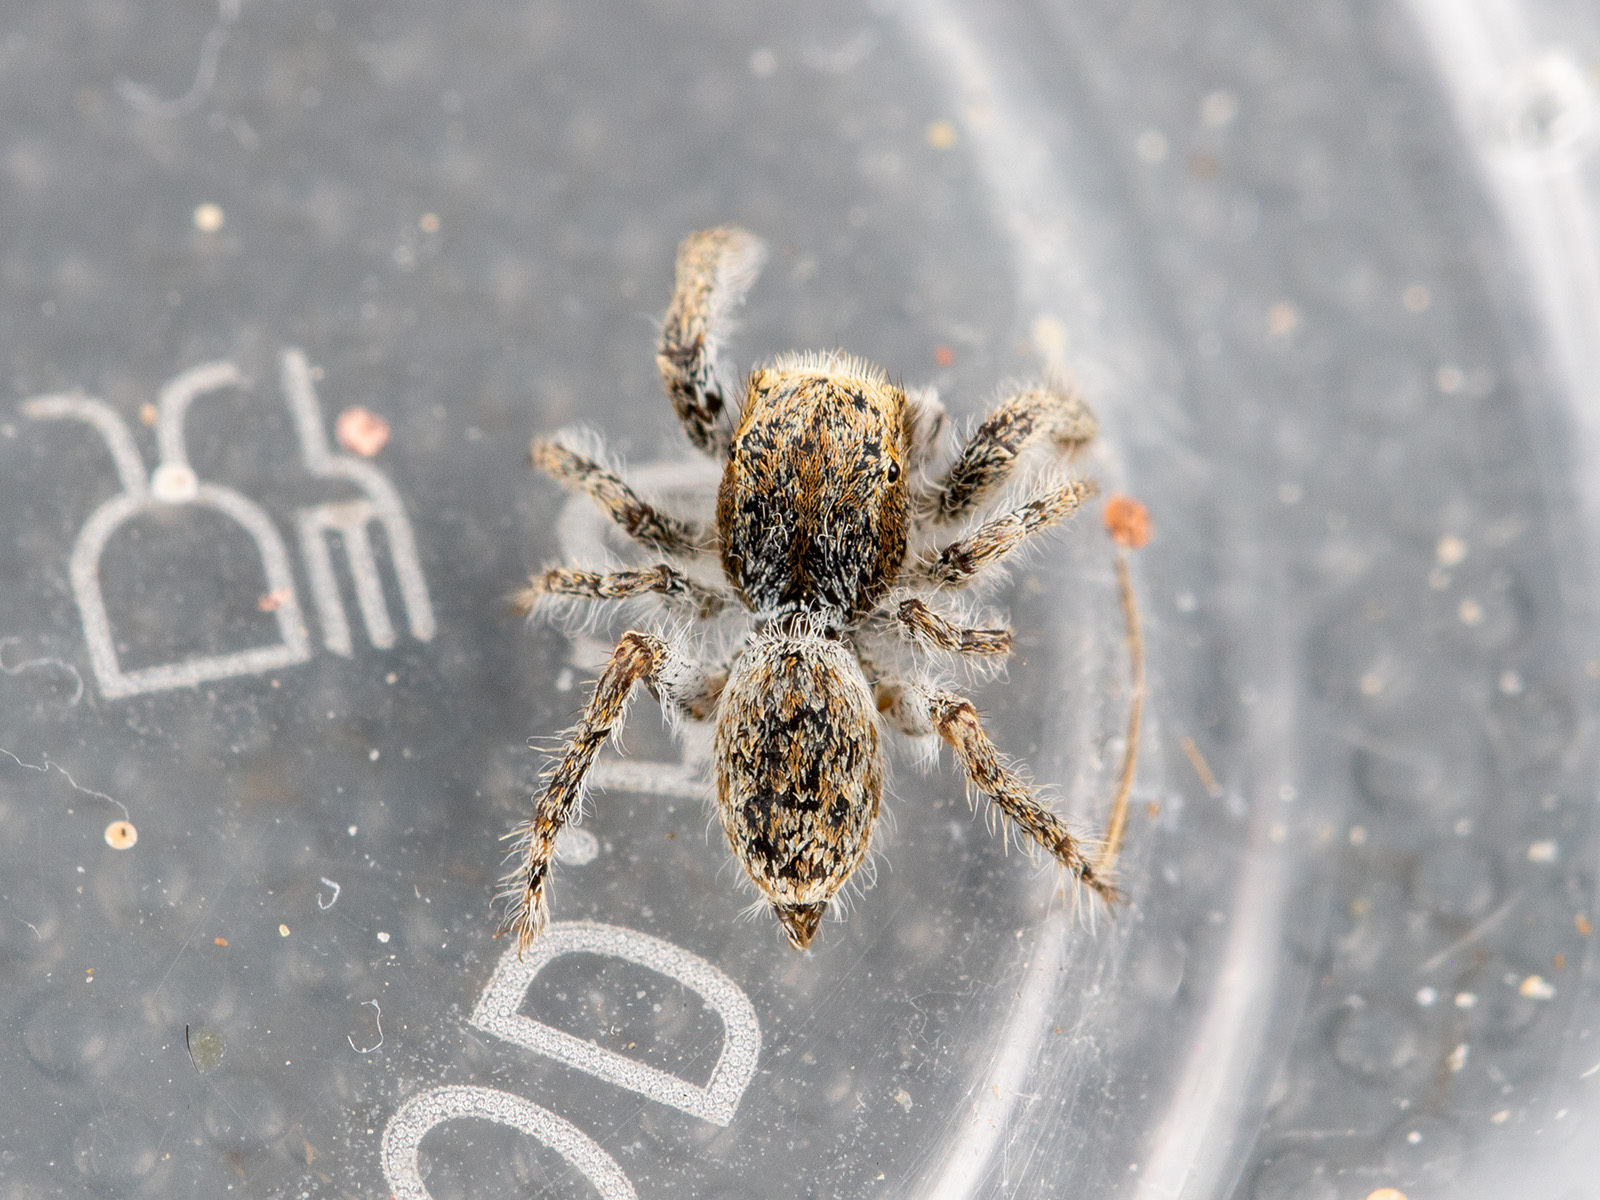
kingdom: Animalia
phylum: Arthropoda
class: Arachnida
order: Araneae
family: Salticidae
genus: Marusyllus
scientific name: Marusyllus aralicus
